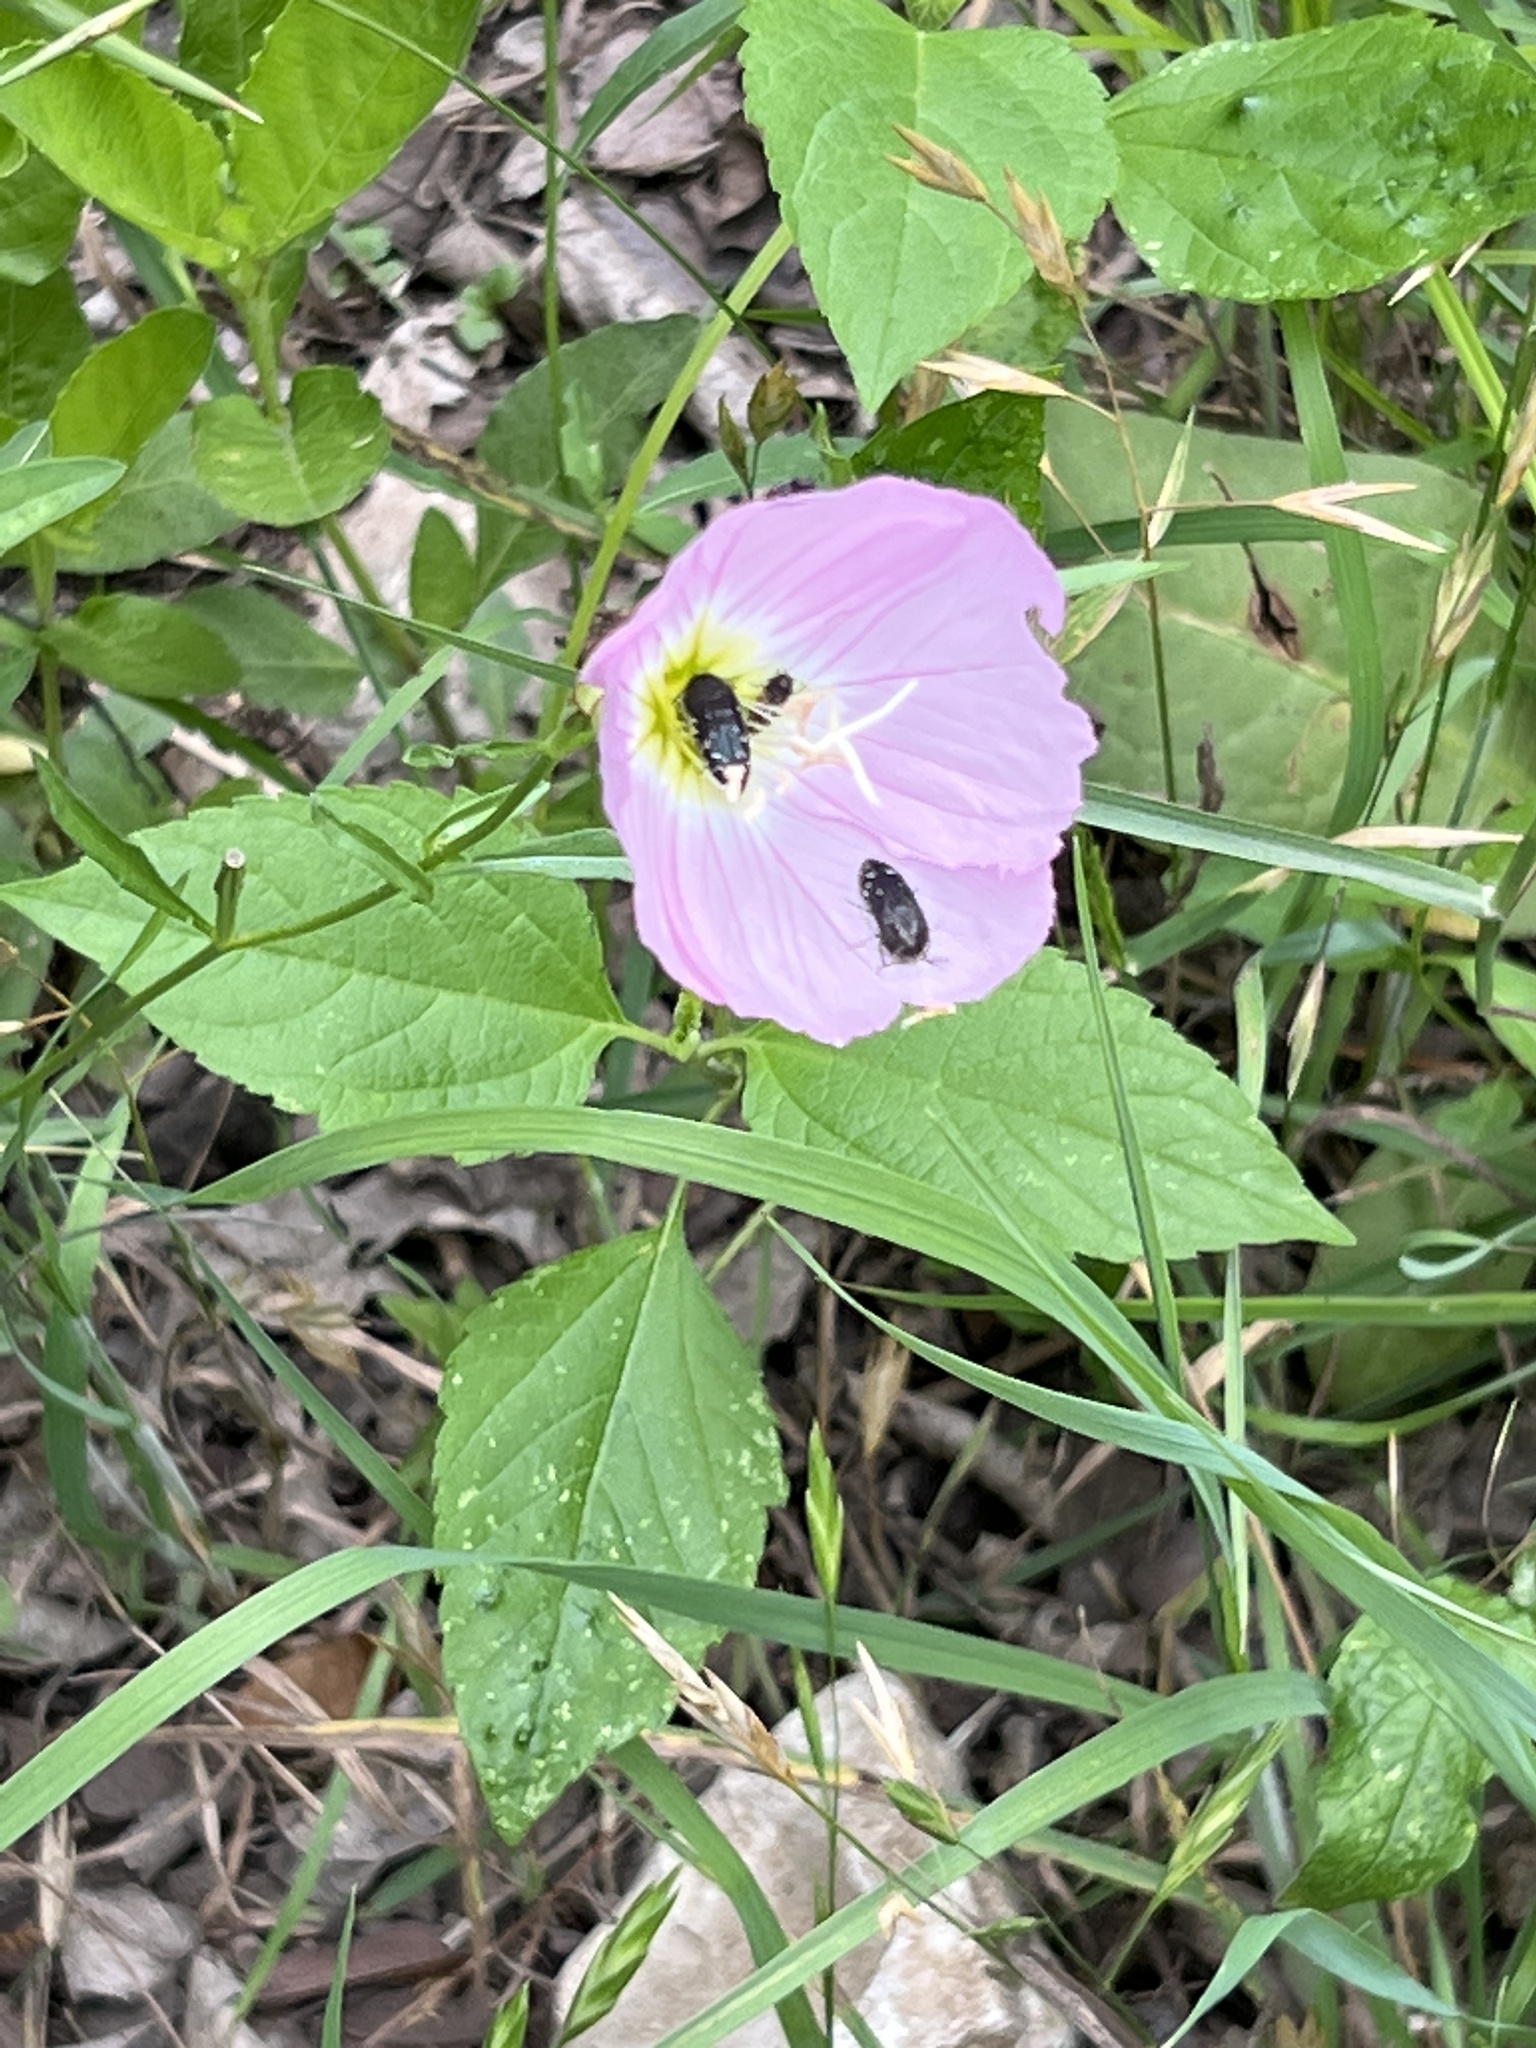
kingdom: Plantae
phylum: Tracheophyta
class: Magnoliopsida
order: Myrtales
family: Onagraceae
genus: Oenothera
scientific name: Oenothera speciosa
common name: White evening-primrose
